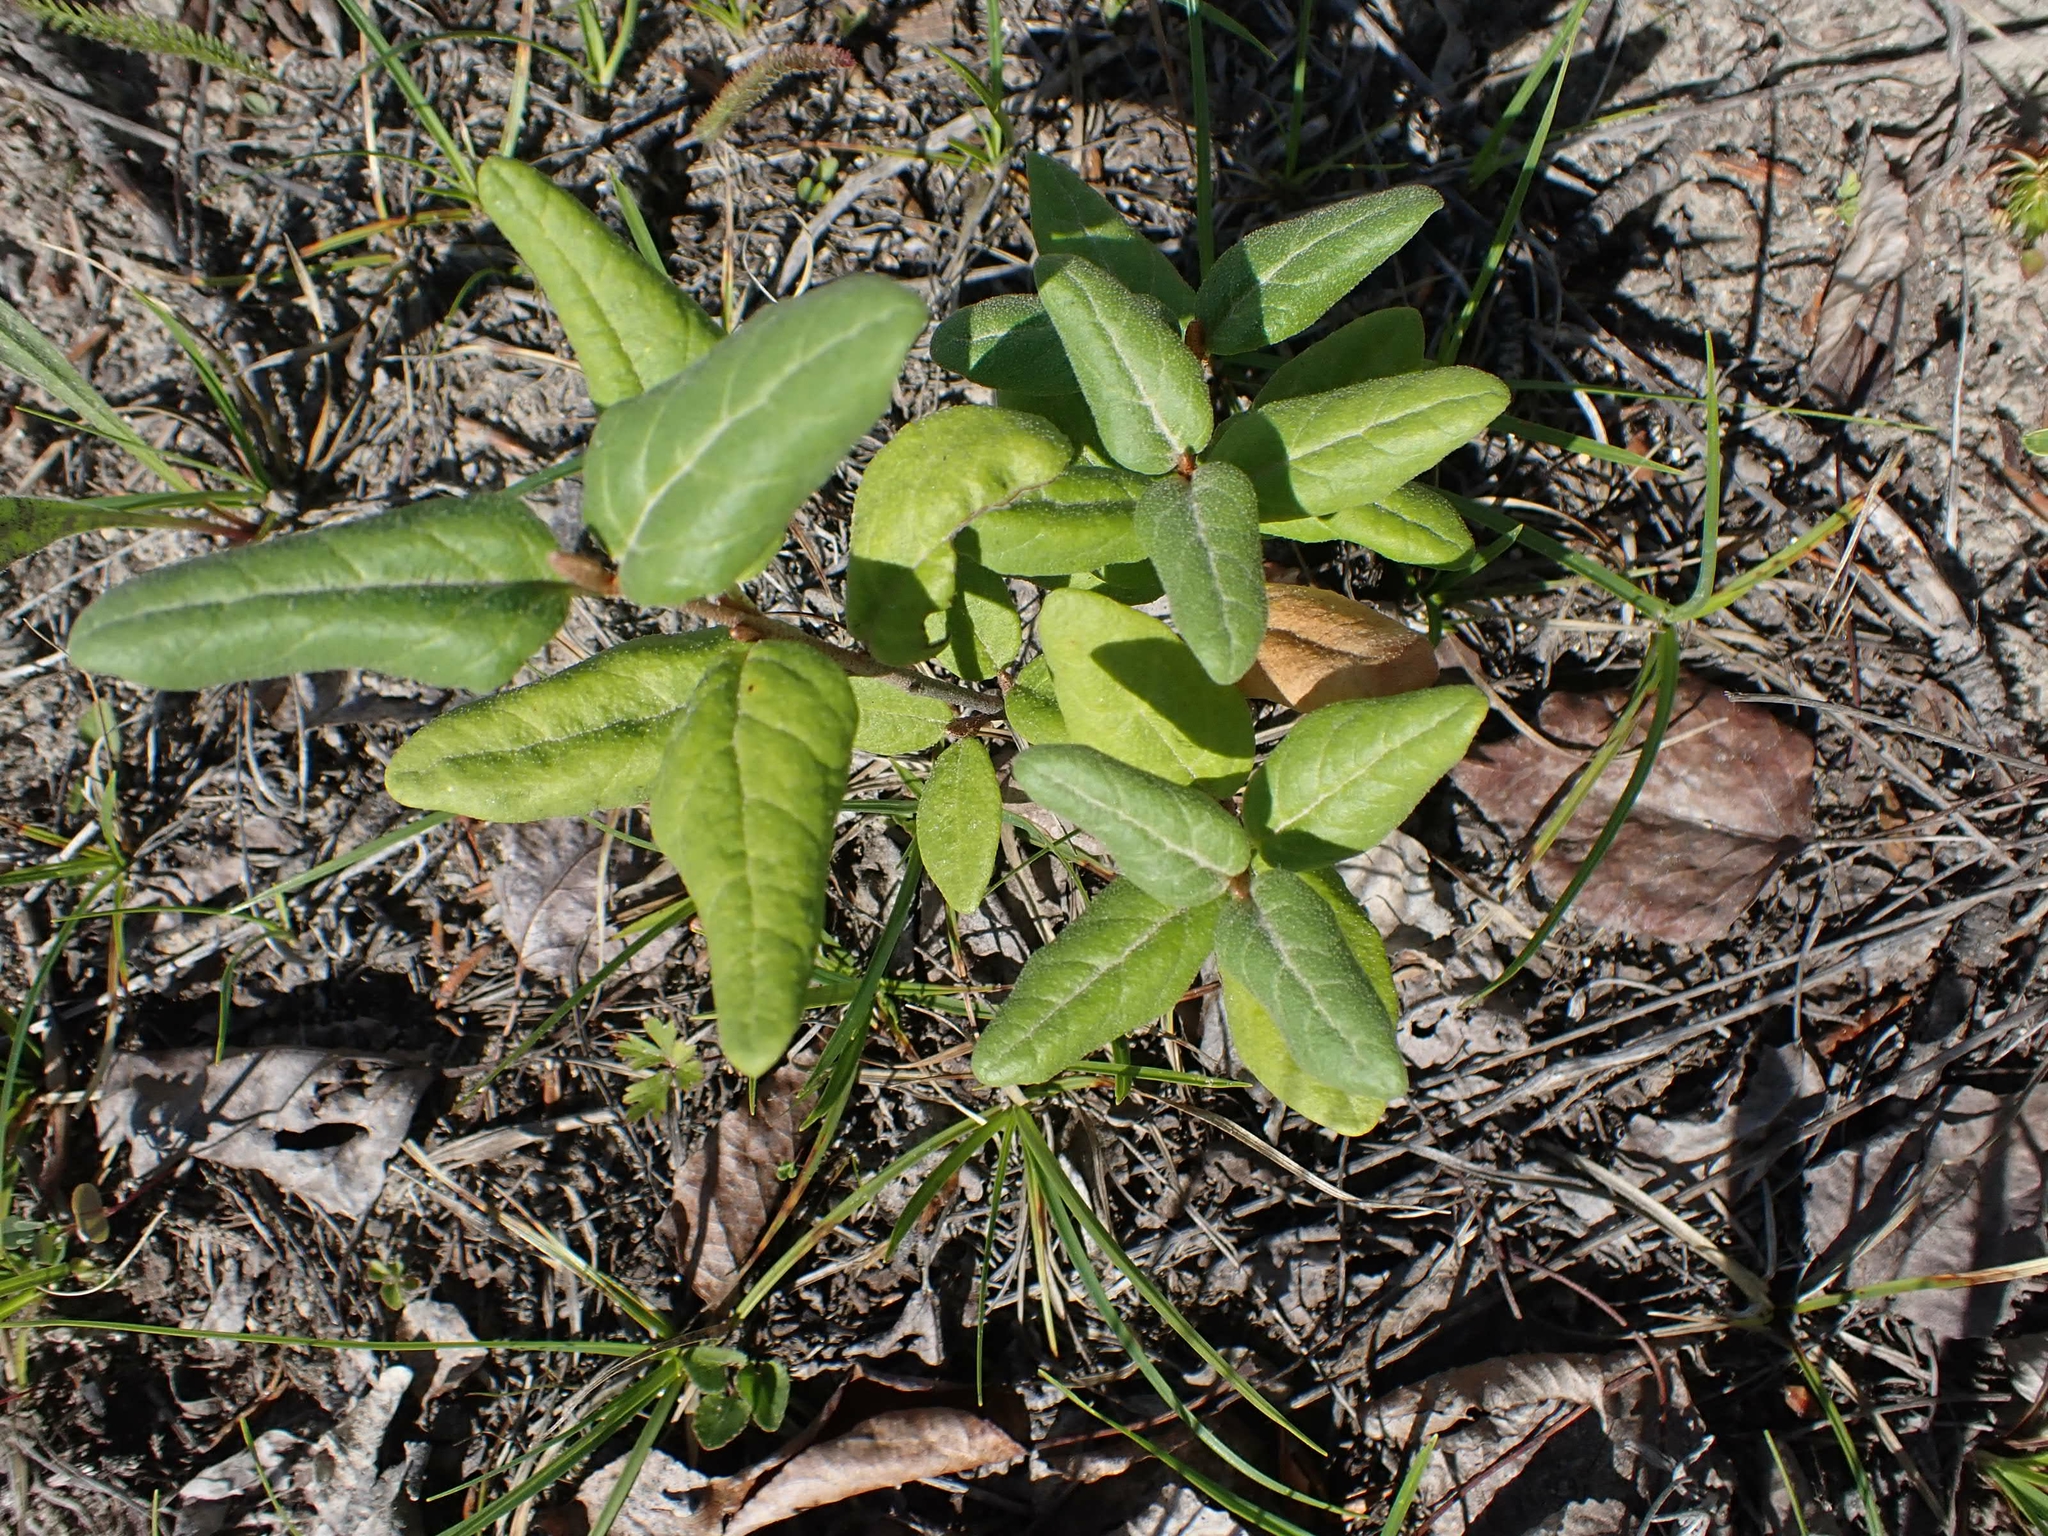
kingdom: Plantae
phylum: Tracheophyta
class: Magnoliopsida
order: Rosales
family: Elaeagnaceae
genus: Shepherdia
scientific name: Shepherdia canadensis
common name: Soapberry
